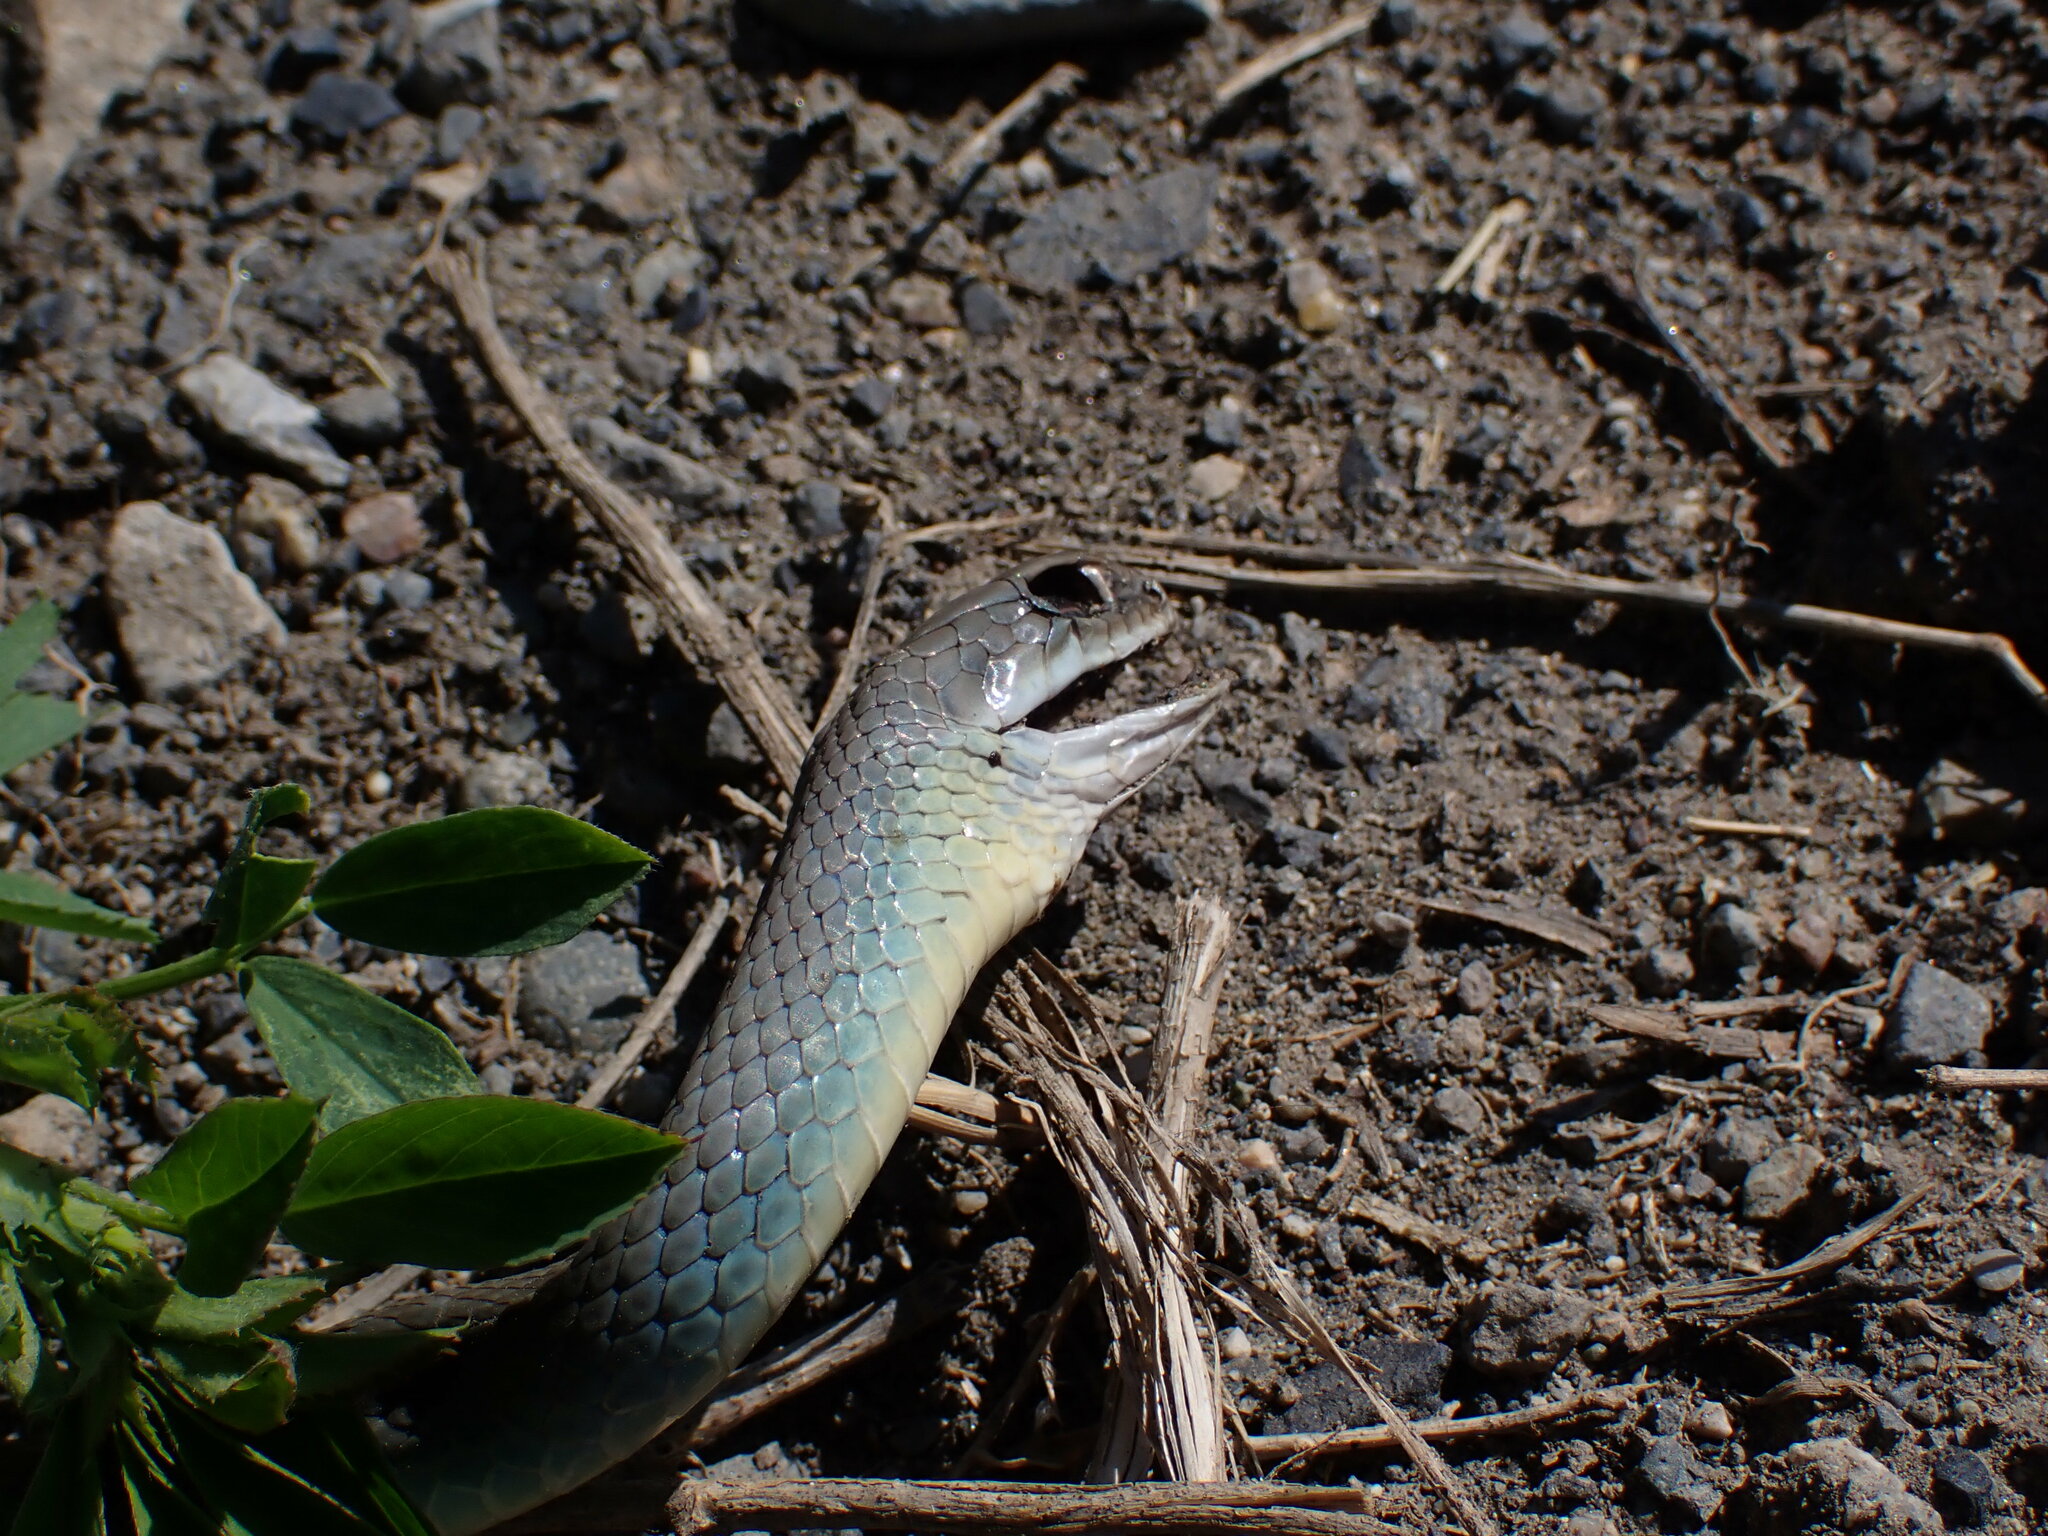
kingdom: Animalia
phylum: Chordata
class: Squamata
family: Colubridae
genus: Coluber
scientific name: Coluber constrictor
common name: Eastern racer
